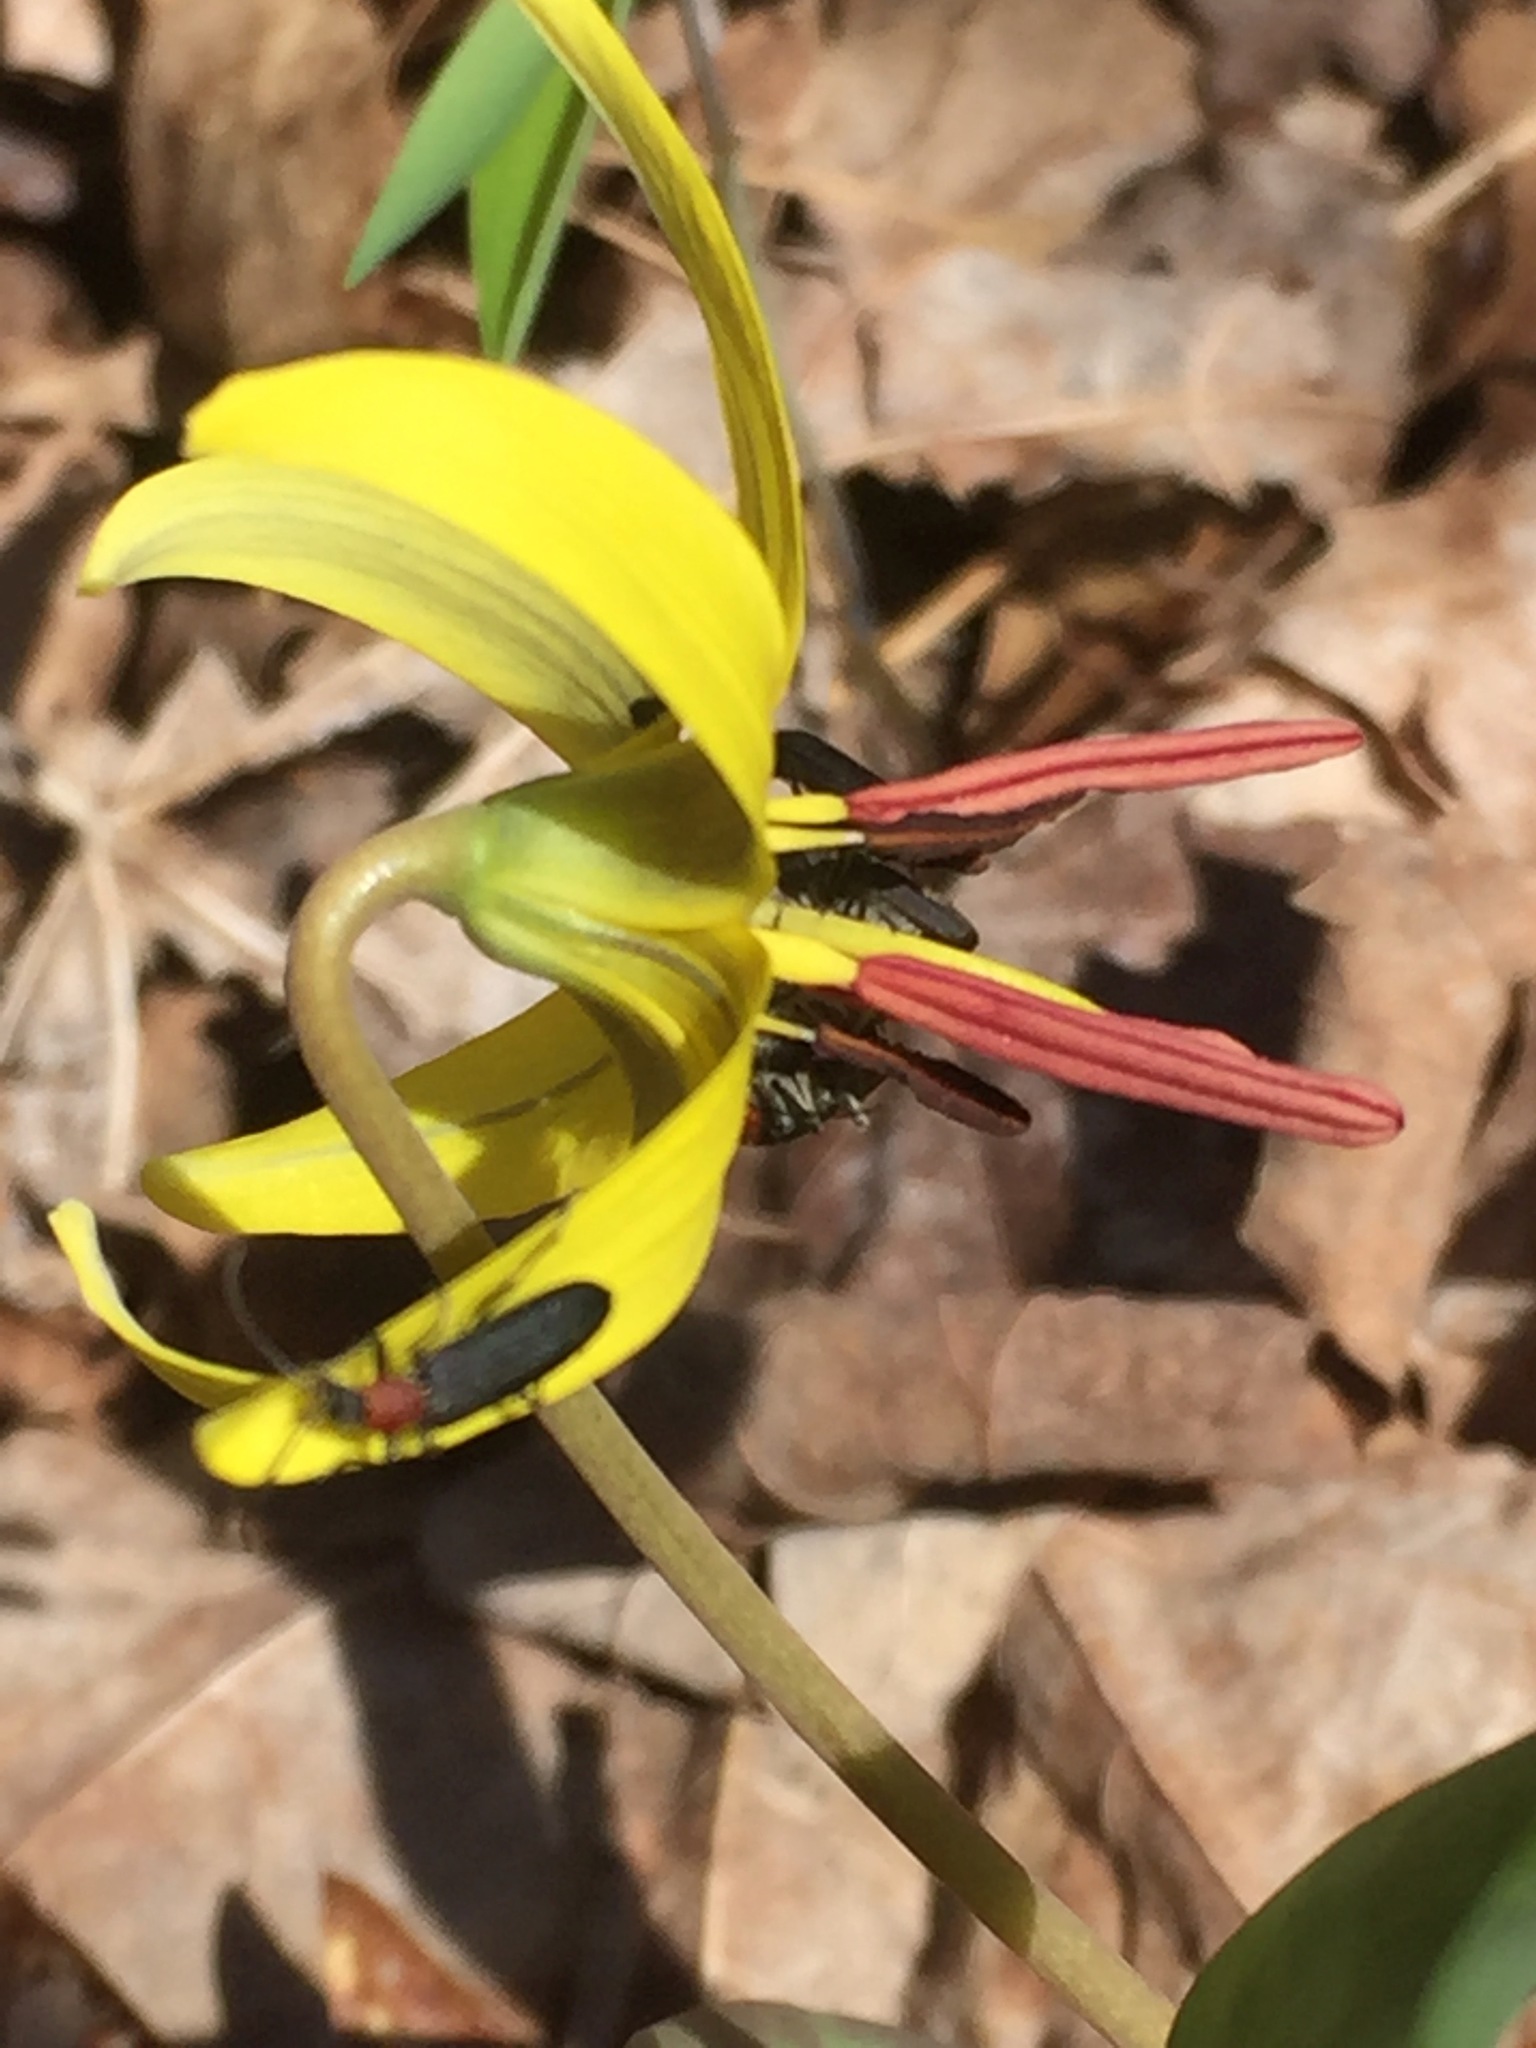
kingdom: Plantae
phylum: Tracheophyta
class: Liliopsida
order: Liliales
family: Liliaceae
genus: Erythronium
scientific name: Erythronium americanum
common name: Yellow adder's-tongue
